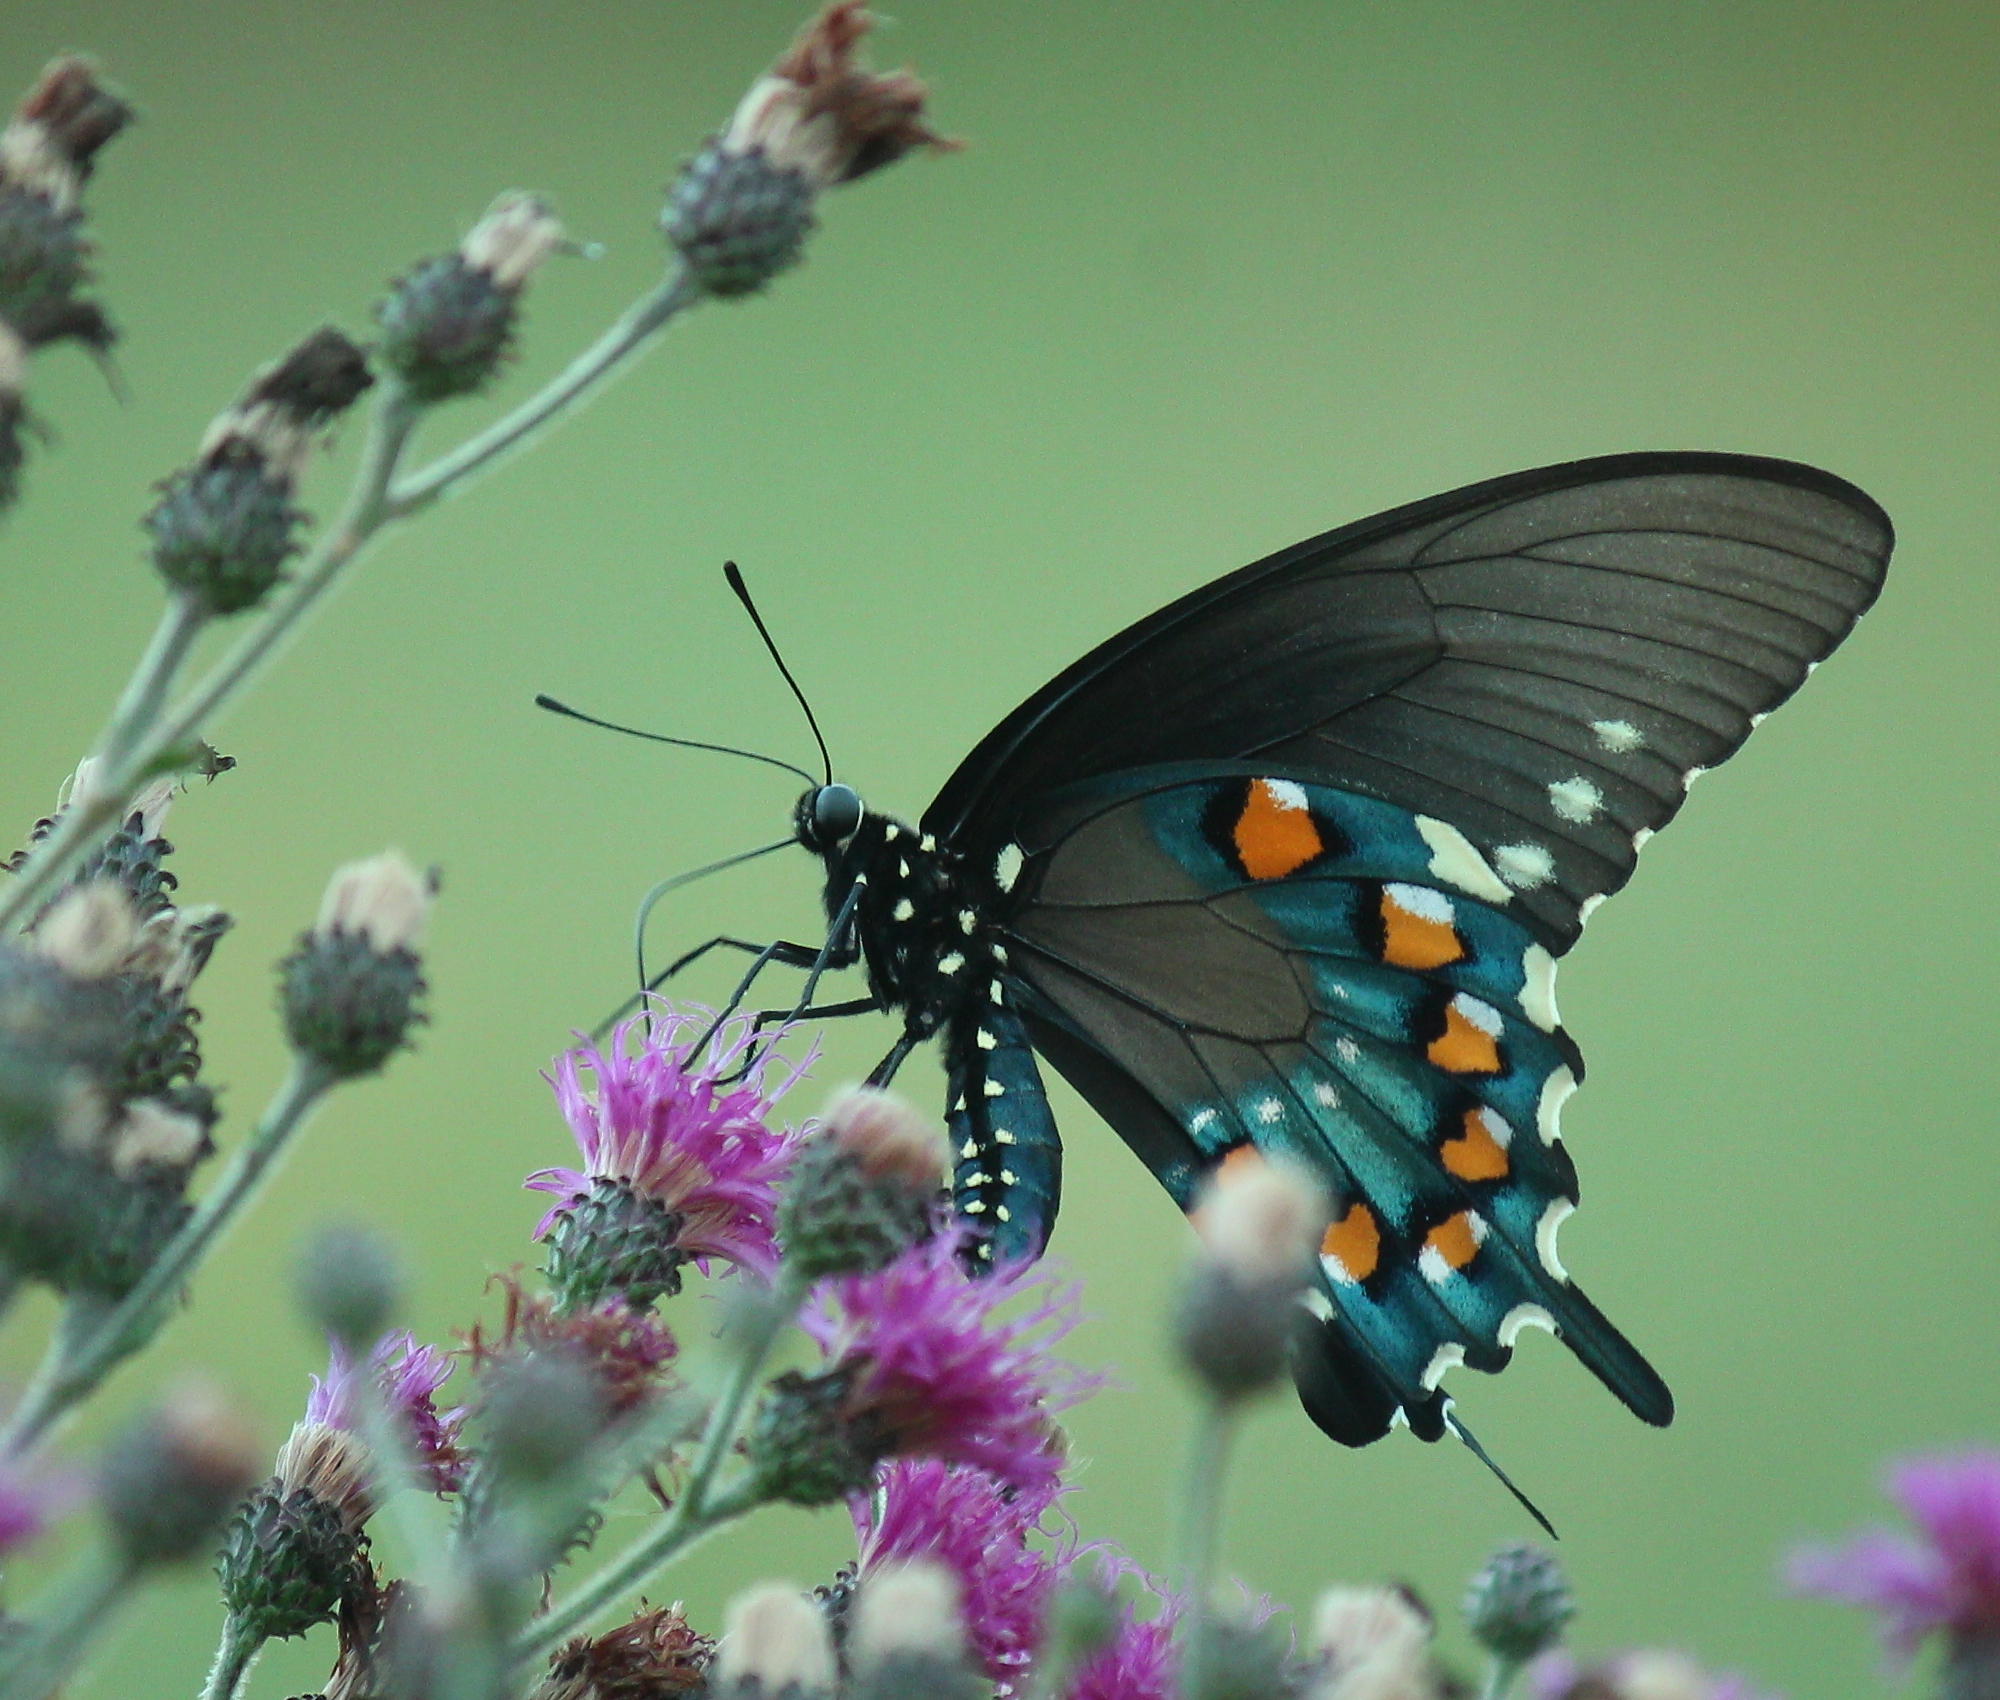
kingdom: Animalia
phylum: Arthropoda
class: Insecta
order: Lepidoptera
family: Papilionidae
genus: Battus
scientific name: Battus philenor
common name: Pipevine swallowtail
